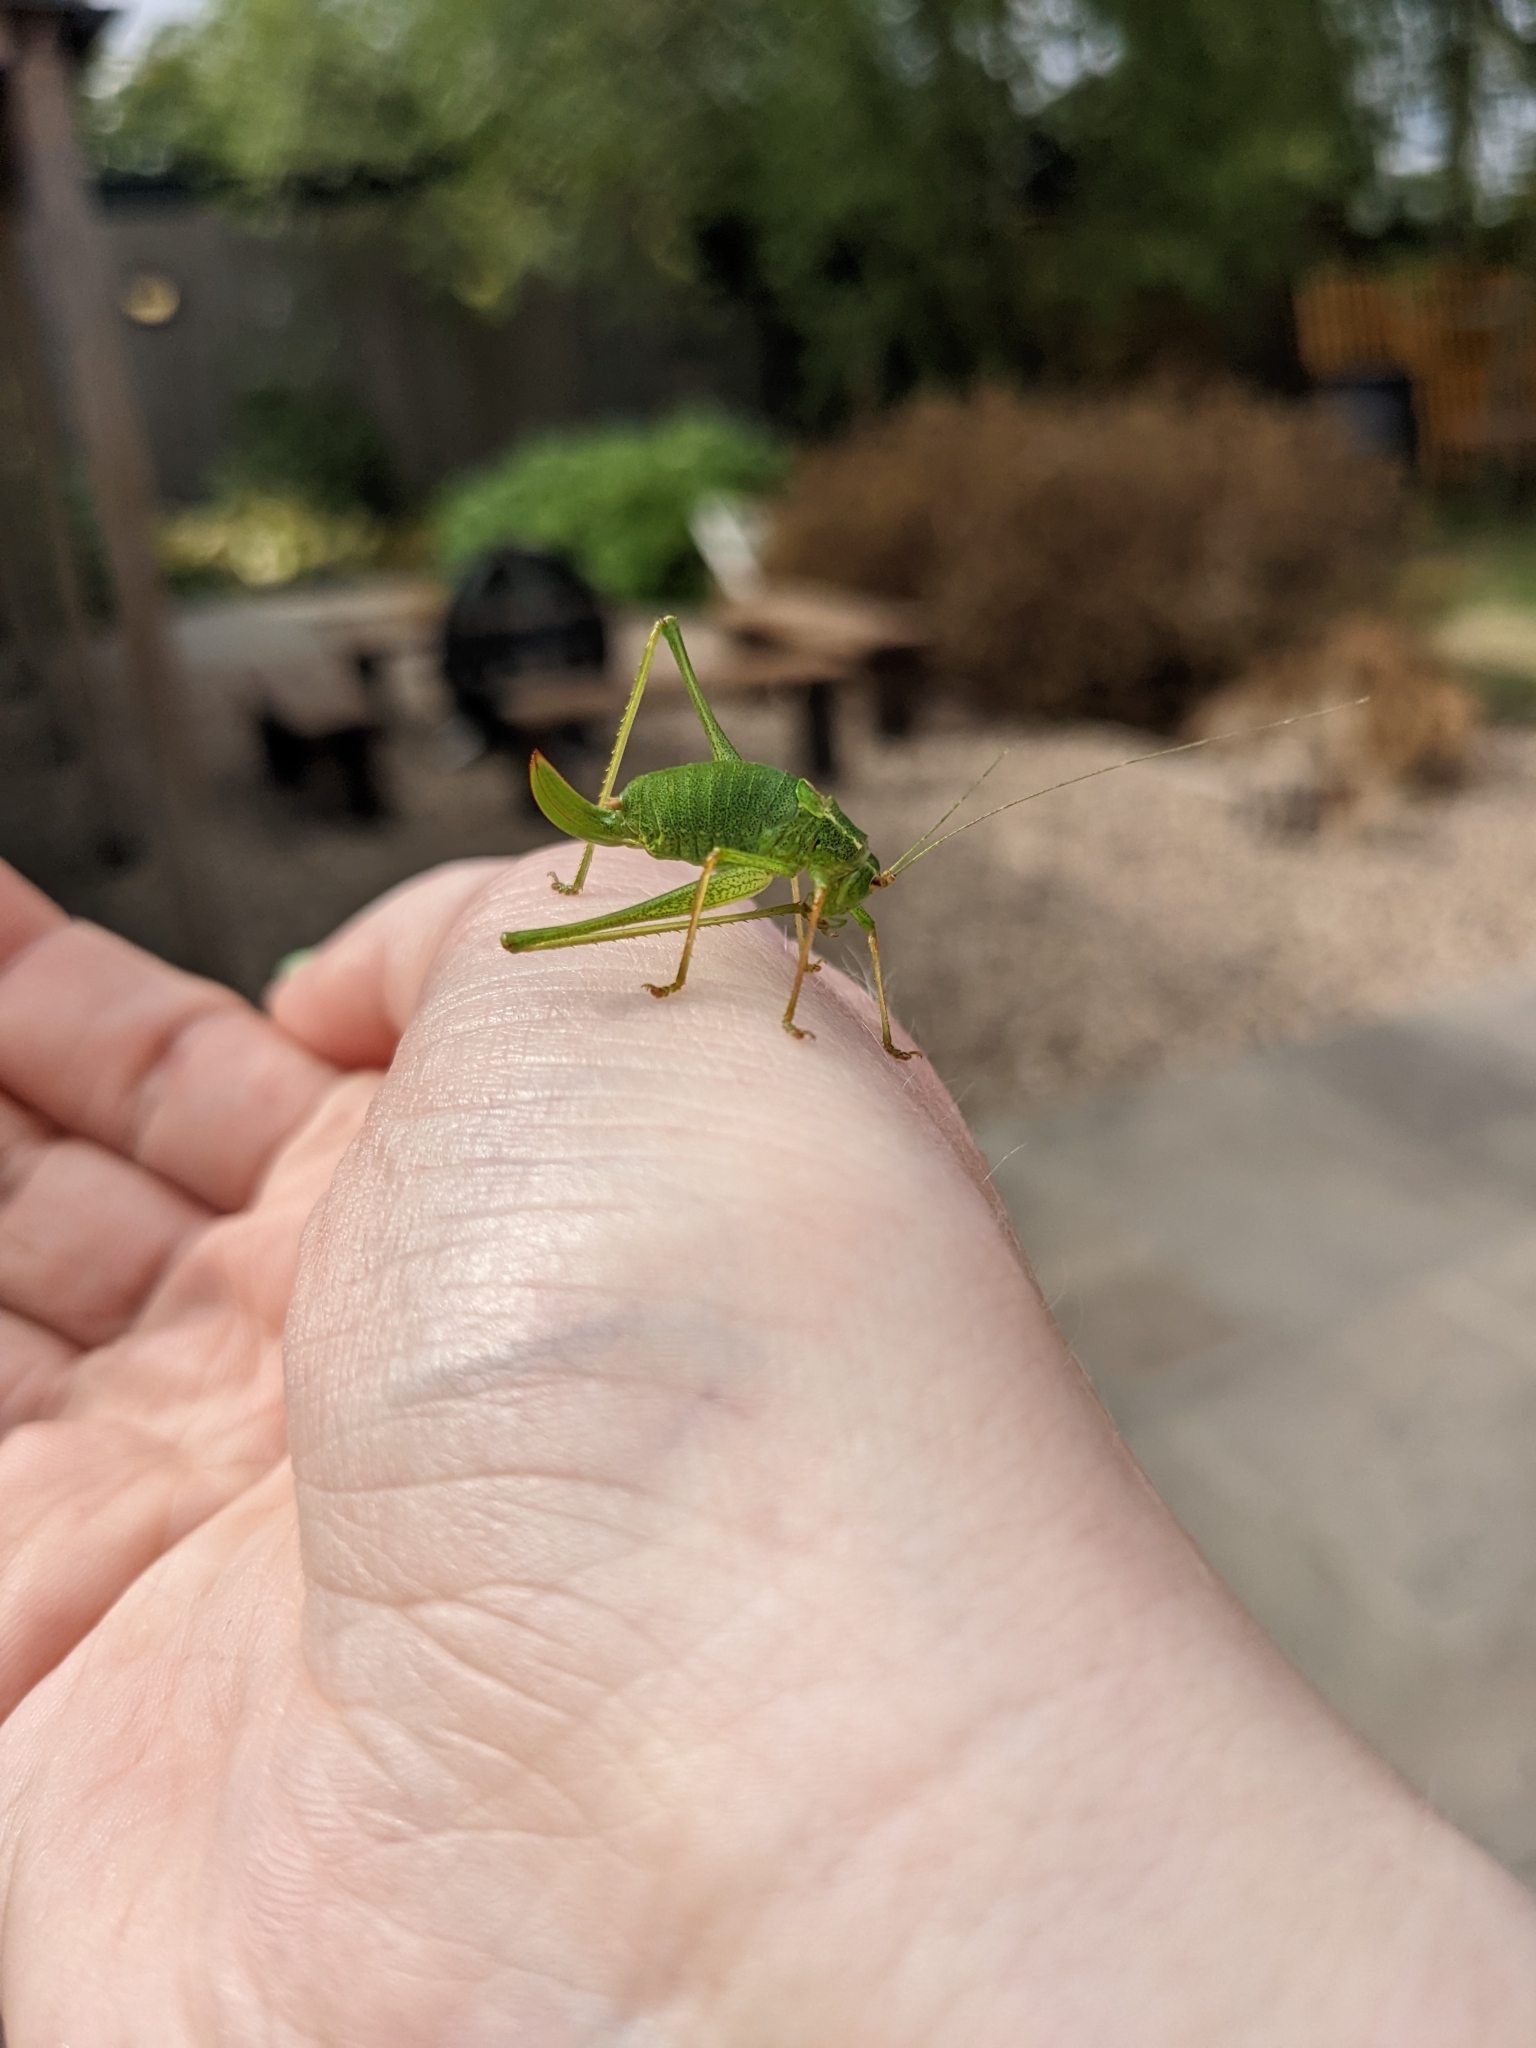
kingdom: Animalia
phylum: Arthropoda
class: Insecta
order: Orthoptera
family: Tettigoniidae
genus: Leptophyes
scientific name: Leptophyes punctatissima
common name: Speckled bush-cricket
